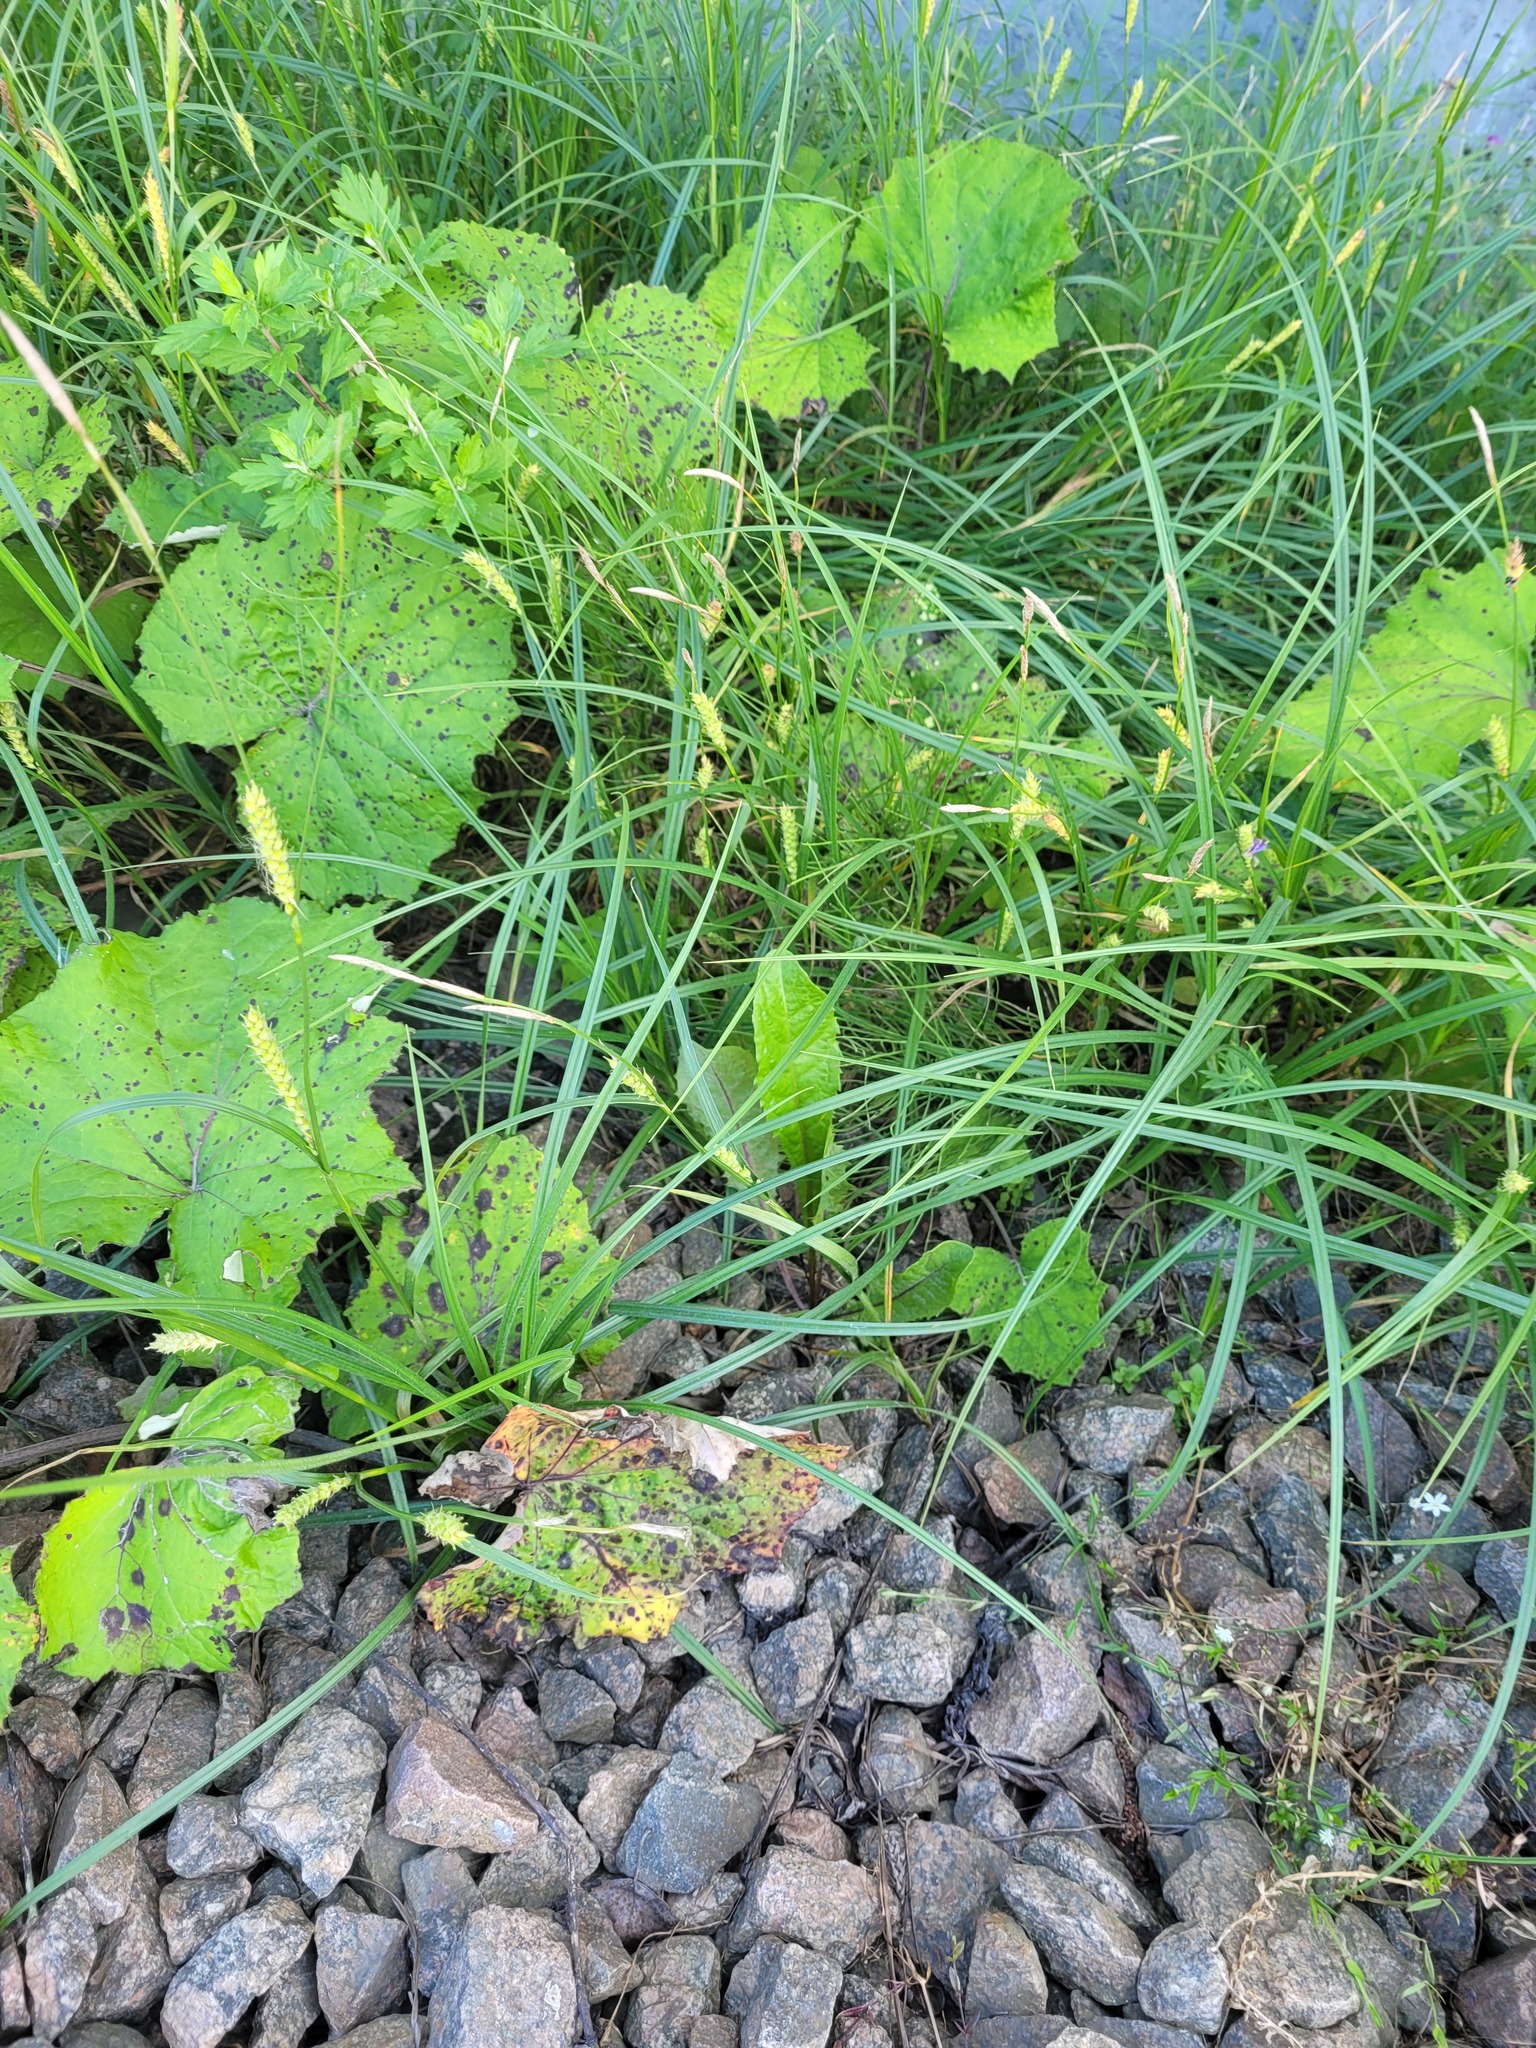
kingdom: Plantae
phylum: Tracheophyta
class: Liliopsida
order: Poales
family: Cyperaceae
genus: Carex
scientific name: Carex hirta
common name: Hairy sedge
